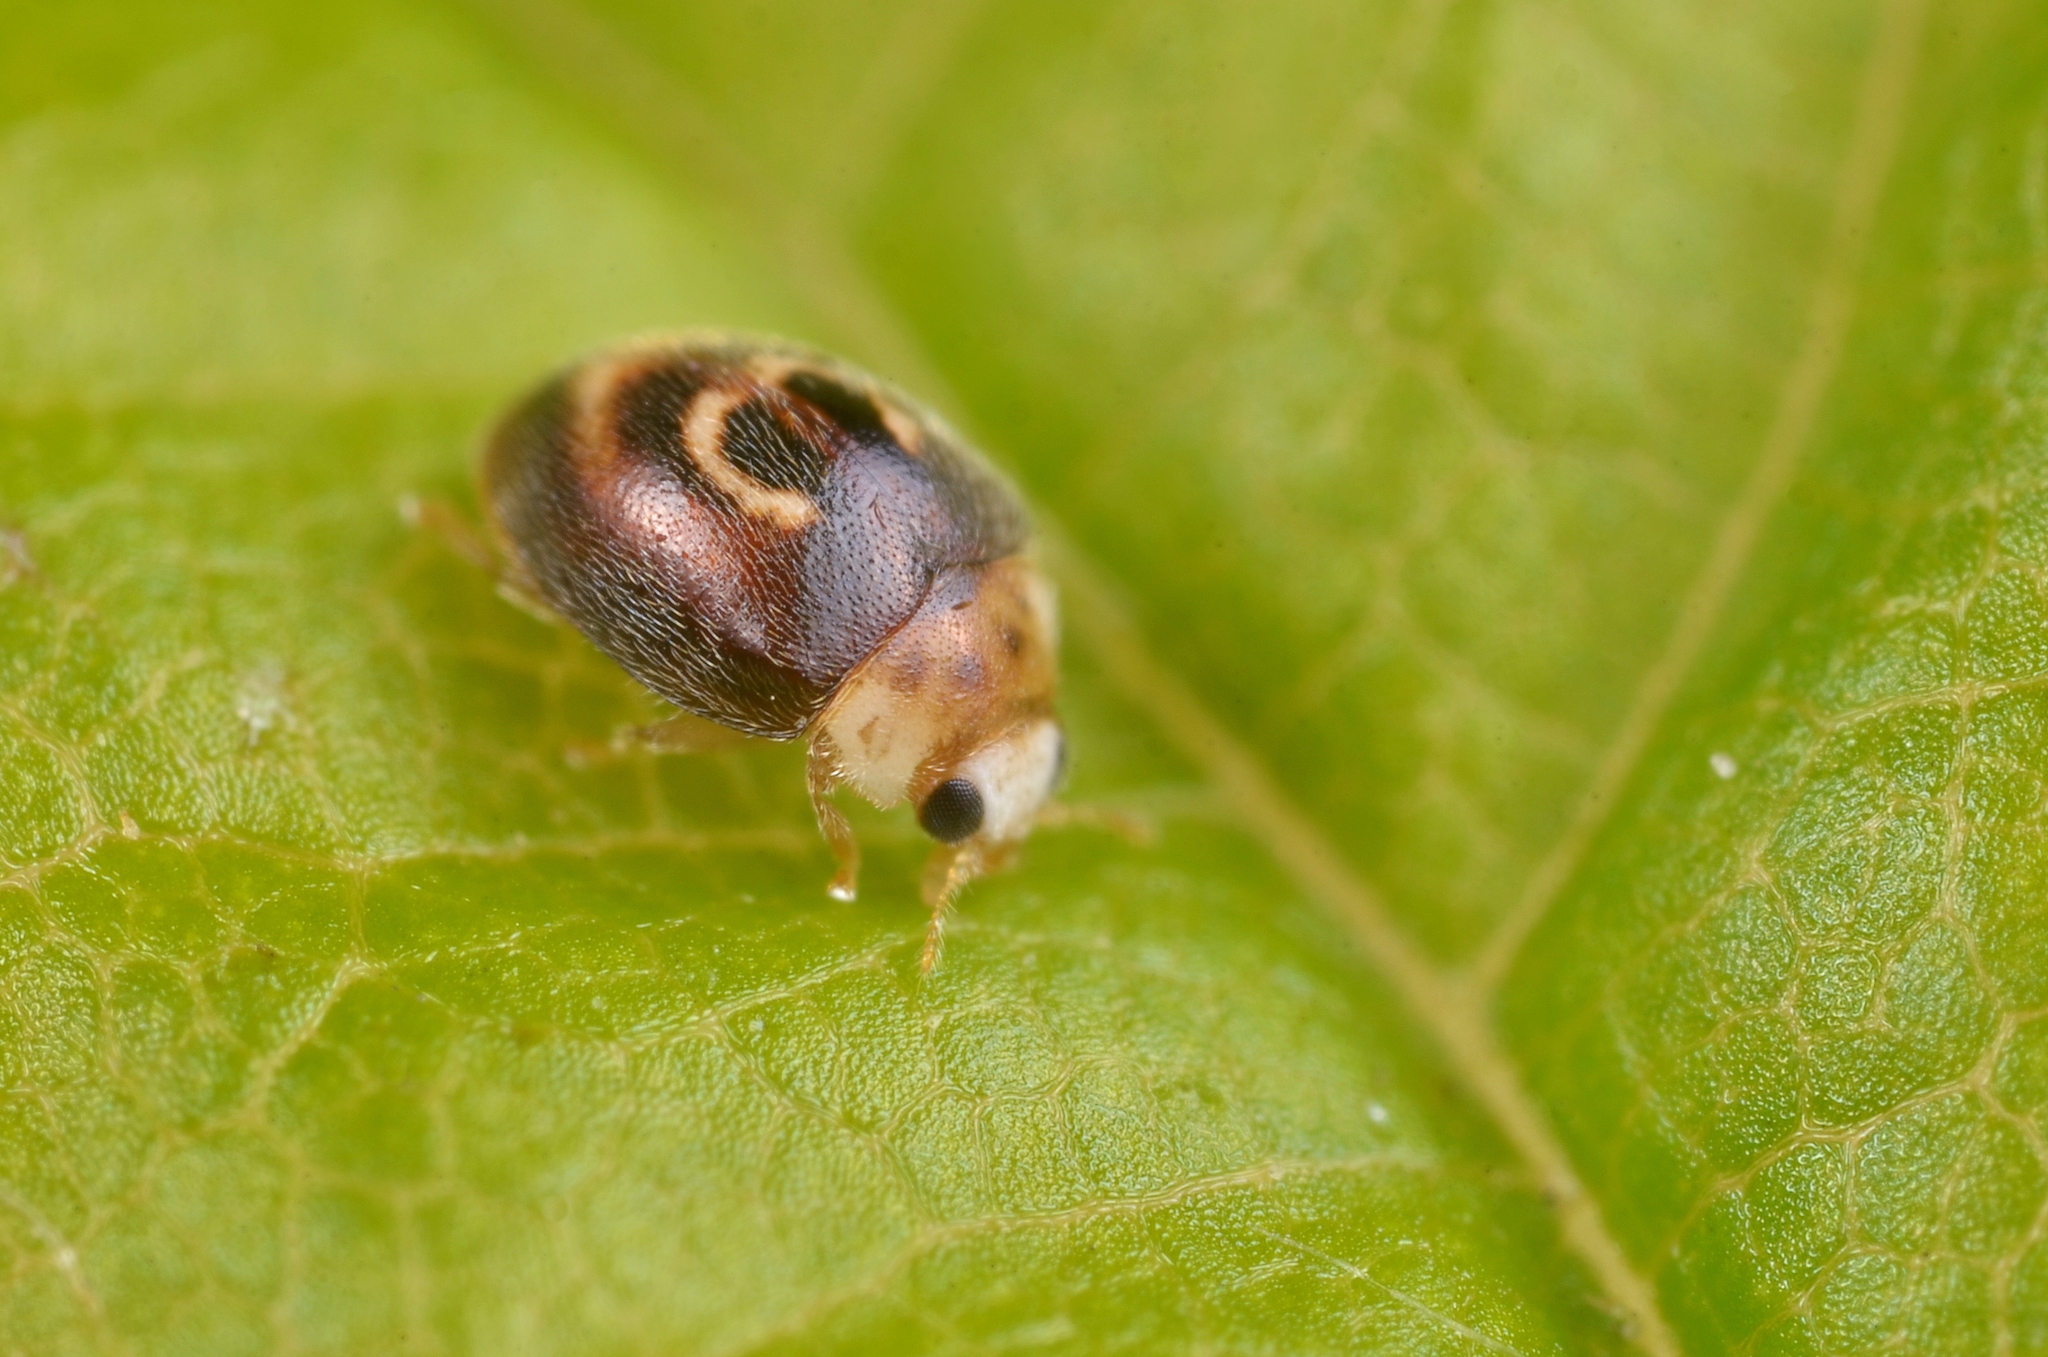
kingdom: Animalia
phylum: Arthropoda
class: Insecta
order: Coleoptera
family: Coccinellidae
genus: Clitostethus
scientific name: Clitostethus arcuatus
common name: Ladybird beetle
